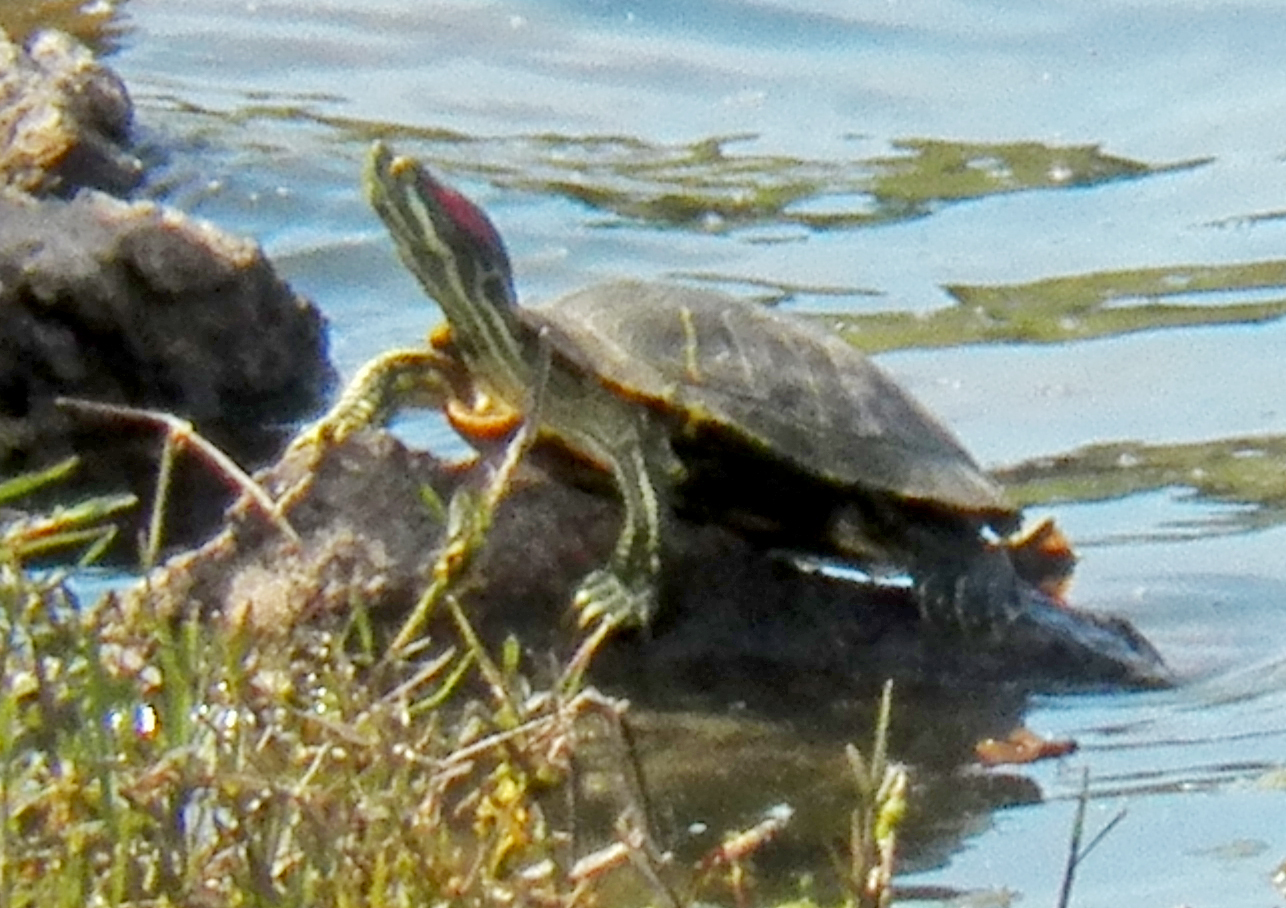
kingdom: Animalia
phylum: Chordata
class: Testudines
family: Emydidae
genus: Trachemys
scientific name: Trachemys scripta
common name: Slider
